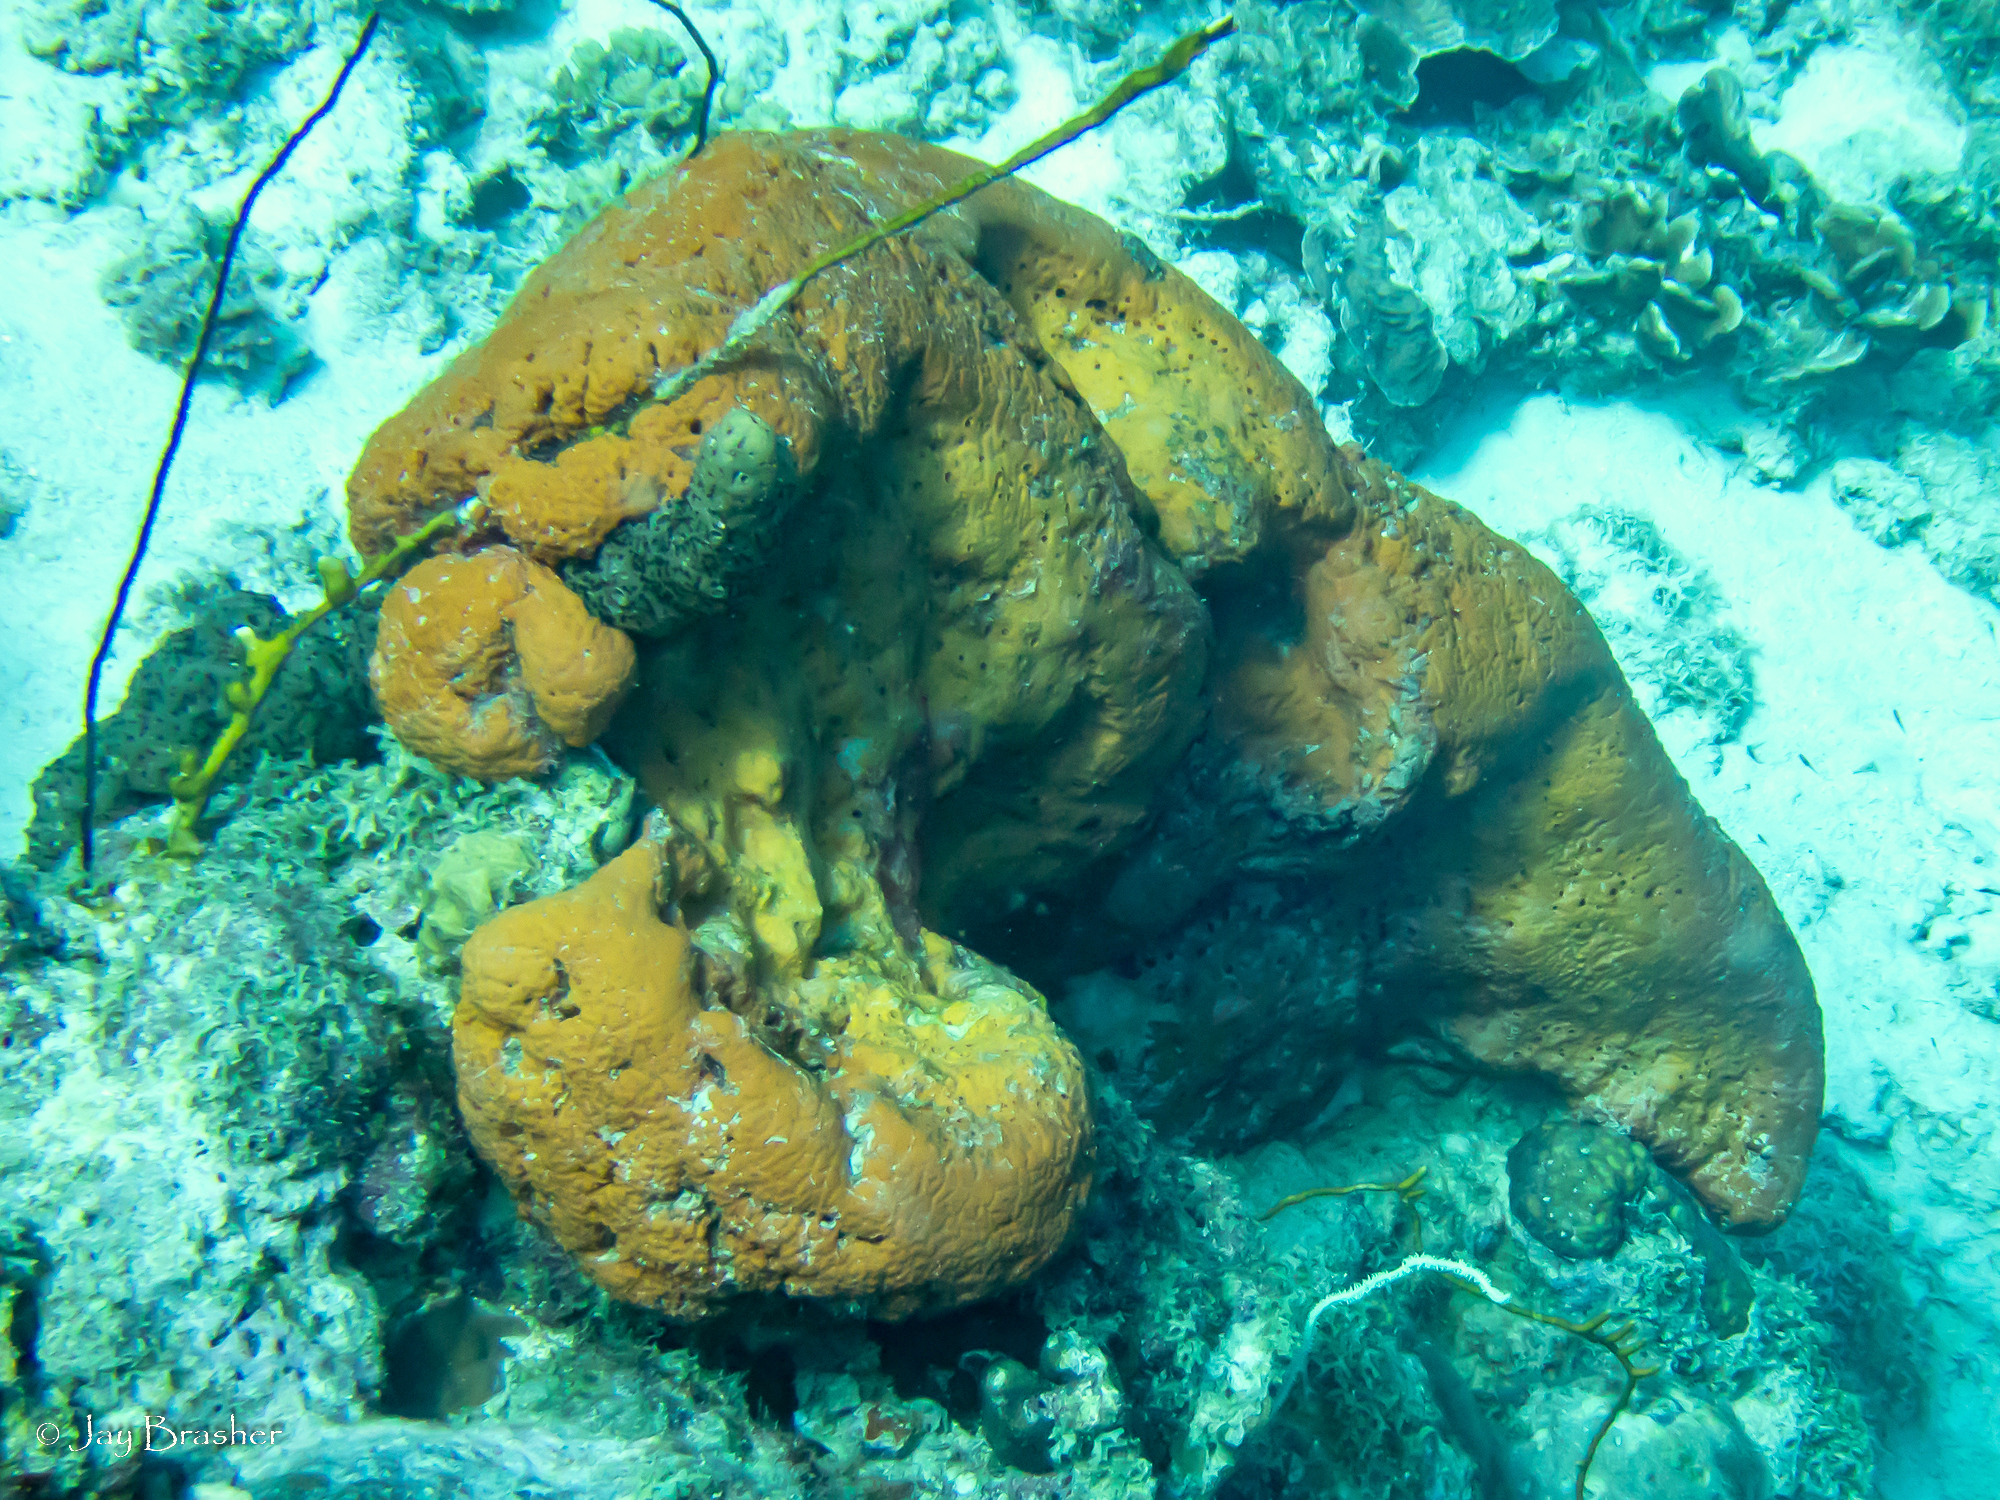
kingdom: Animalia
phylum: Cnidaria
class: Anthozoa
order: Antipatharia
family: Antipathidae
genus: Stichopathes
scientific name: Stichopathes luetkeni
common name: Black wire coral
